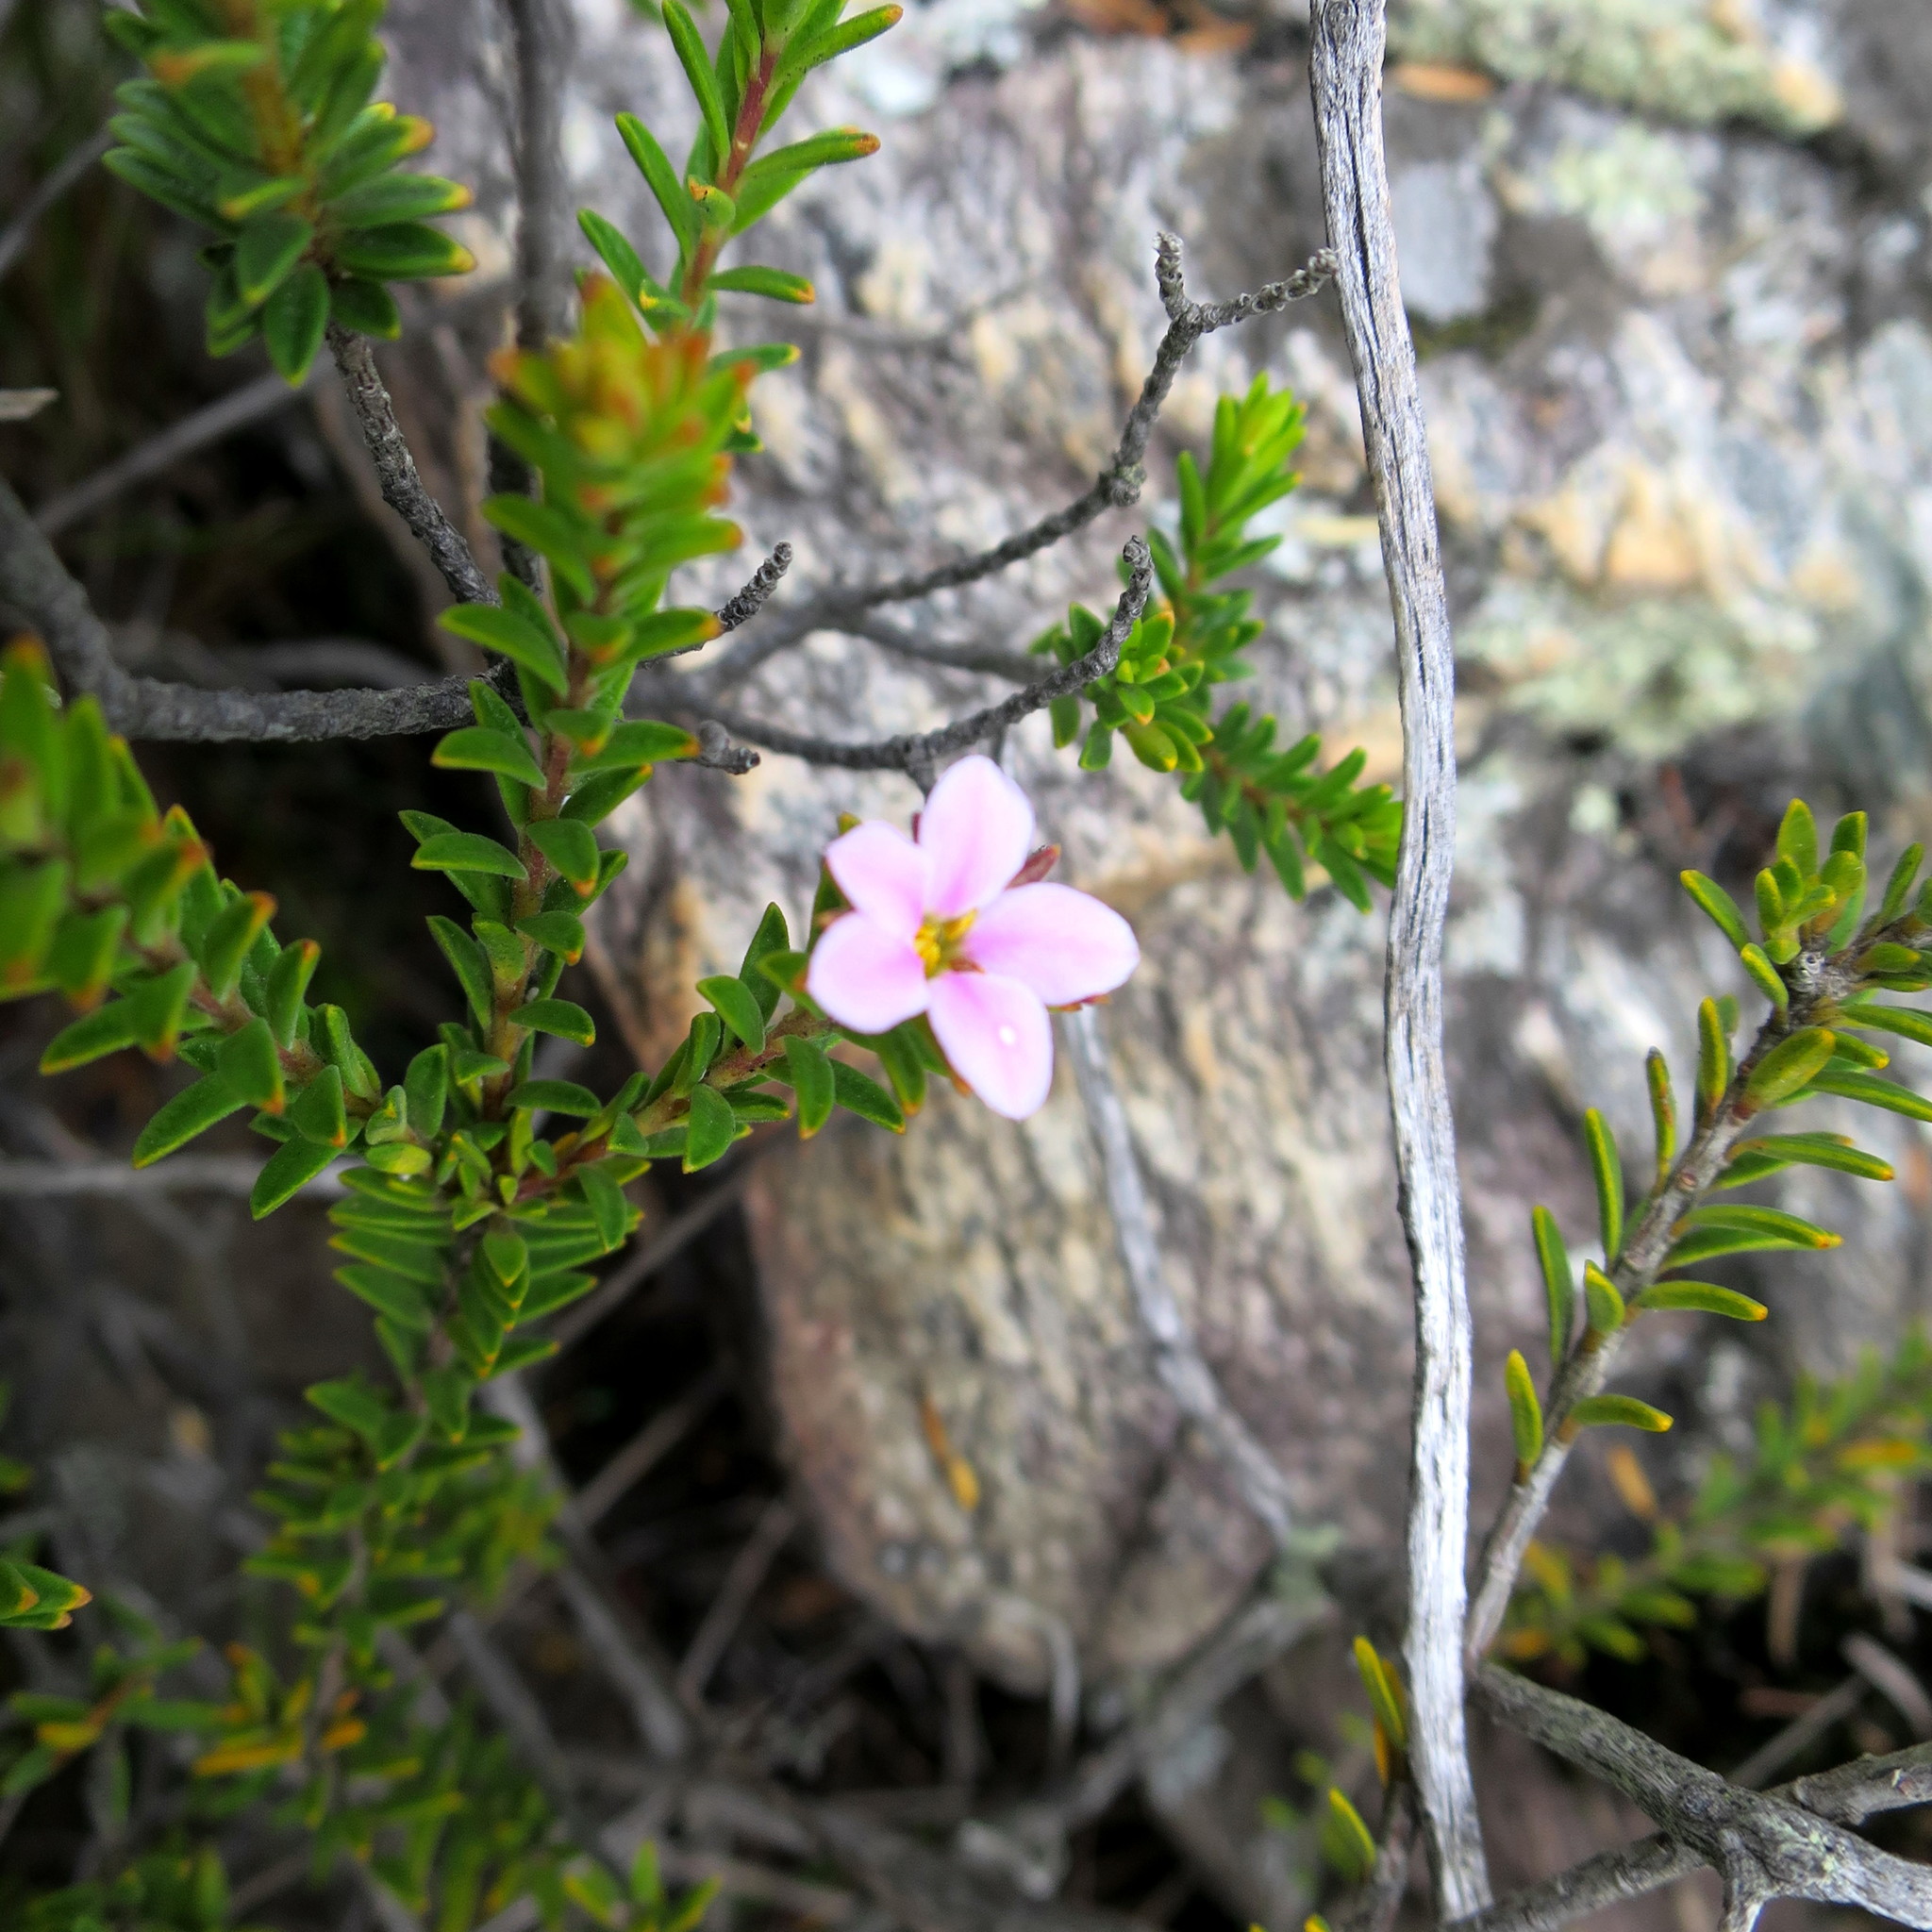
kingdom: Plantae
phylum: Tracheophyta
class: Magnoliopsida
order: Sapindales
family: Rutaceae
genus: Acmadenia
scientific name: Acmadenia rupicola
